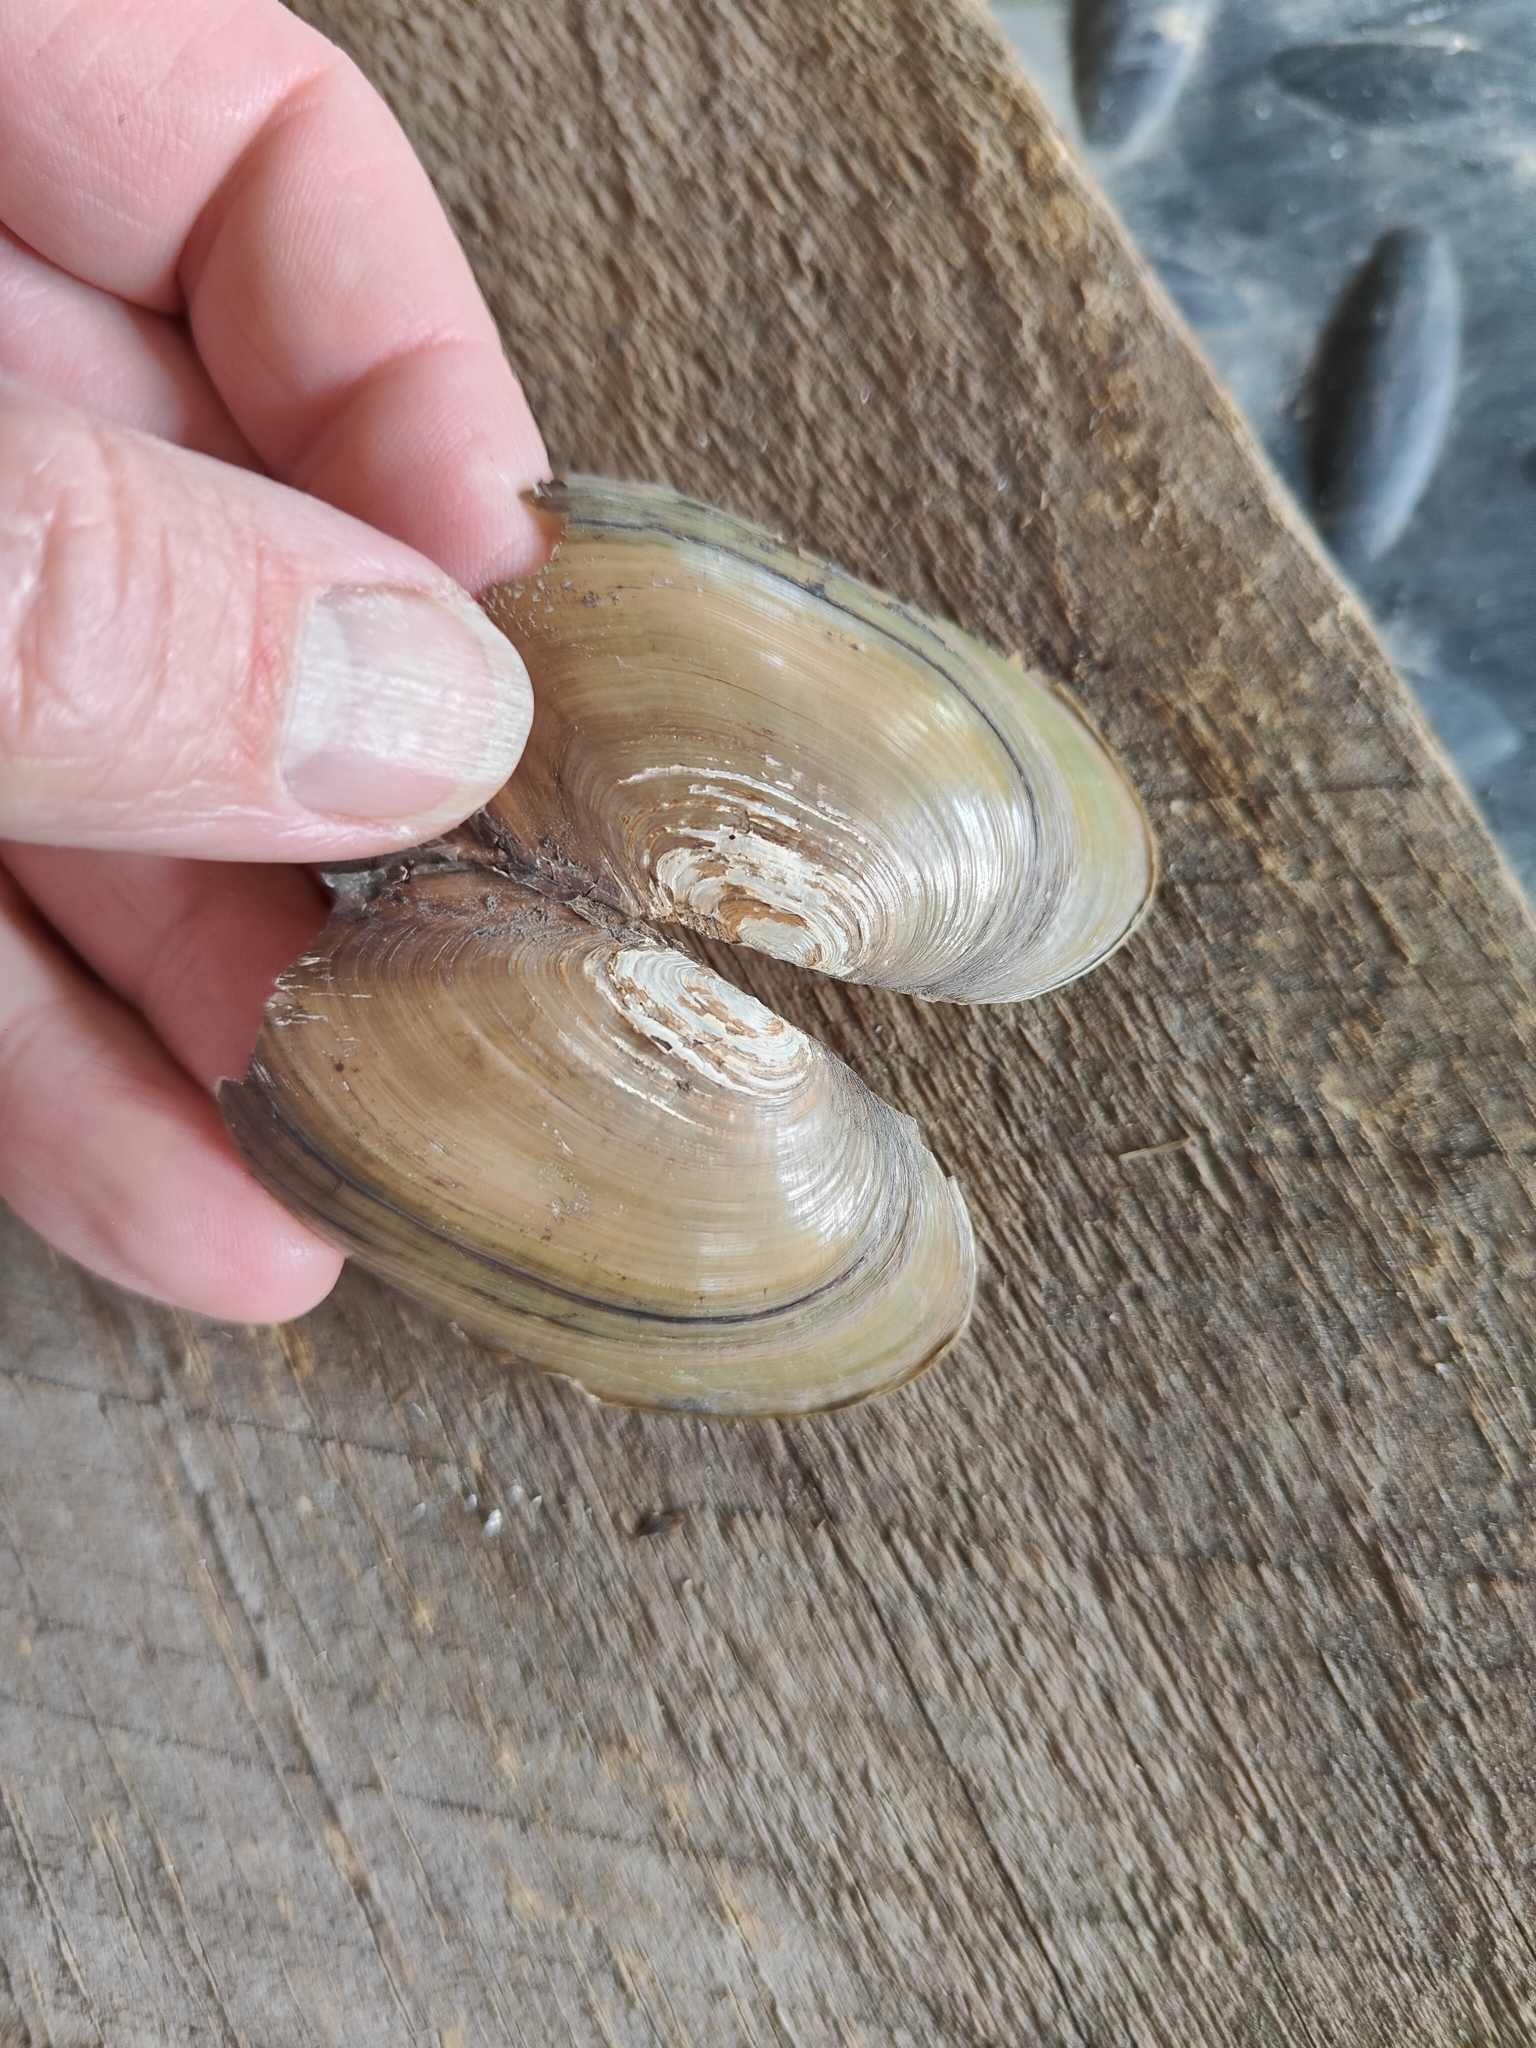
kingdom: Animalia
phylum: Mollusca
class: Bivalvia
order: Unionida
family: Unionidae
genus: Utterbackia
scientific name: Utterbackia imbecillis
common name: Paper pondshell
